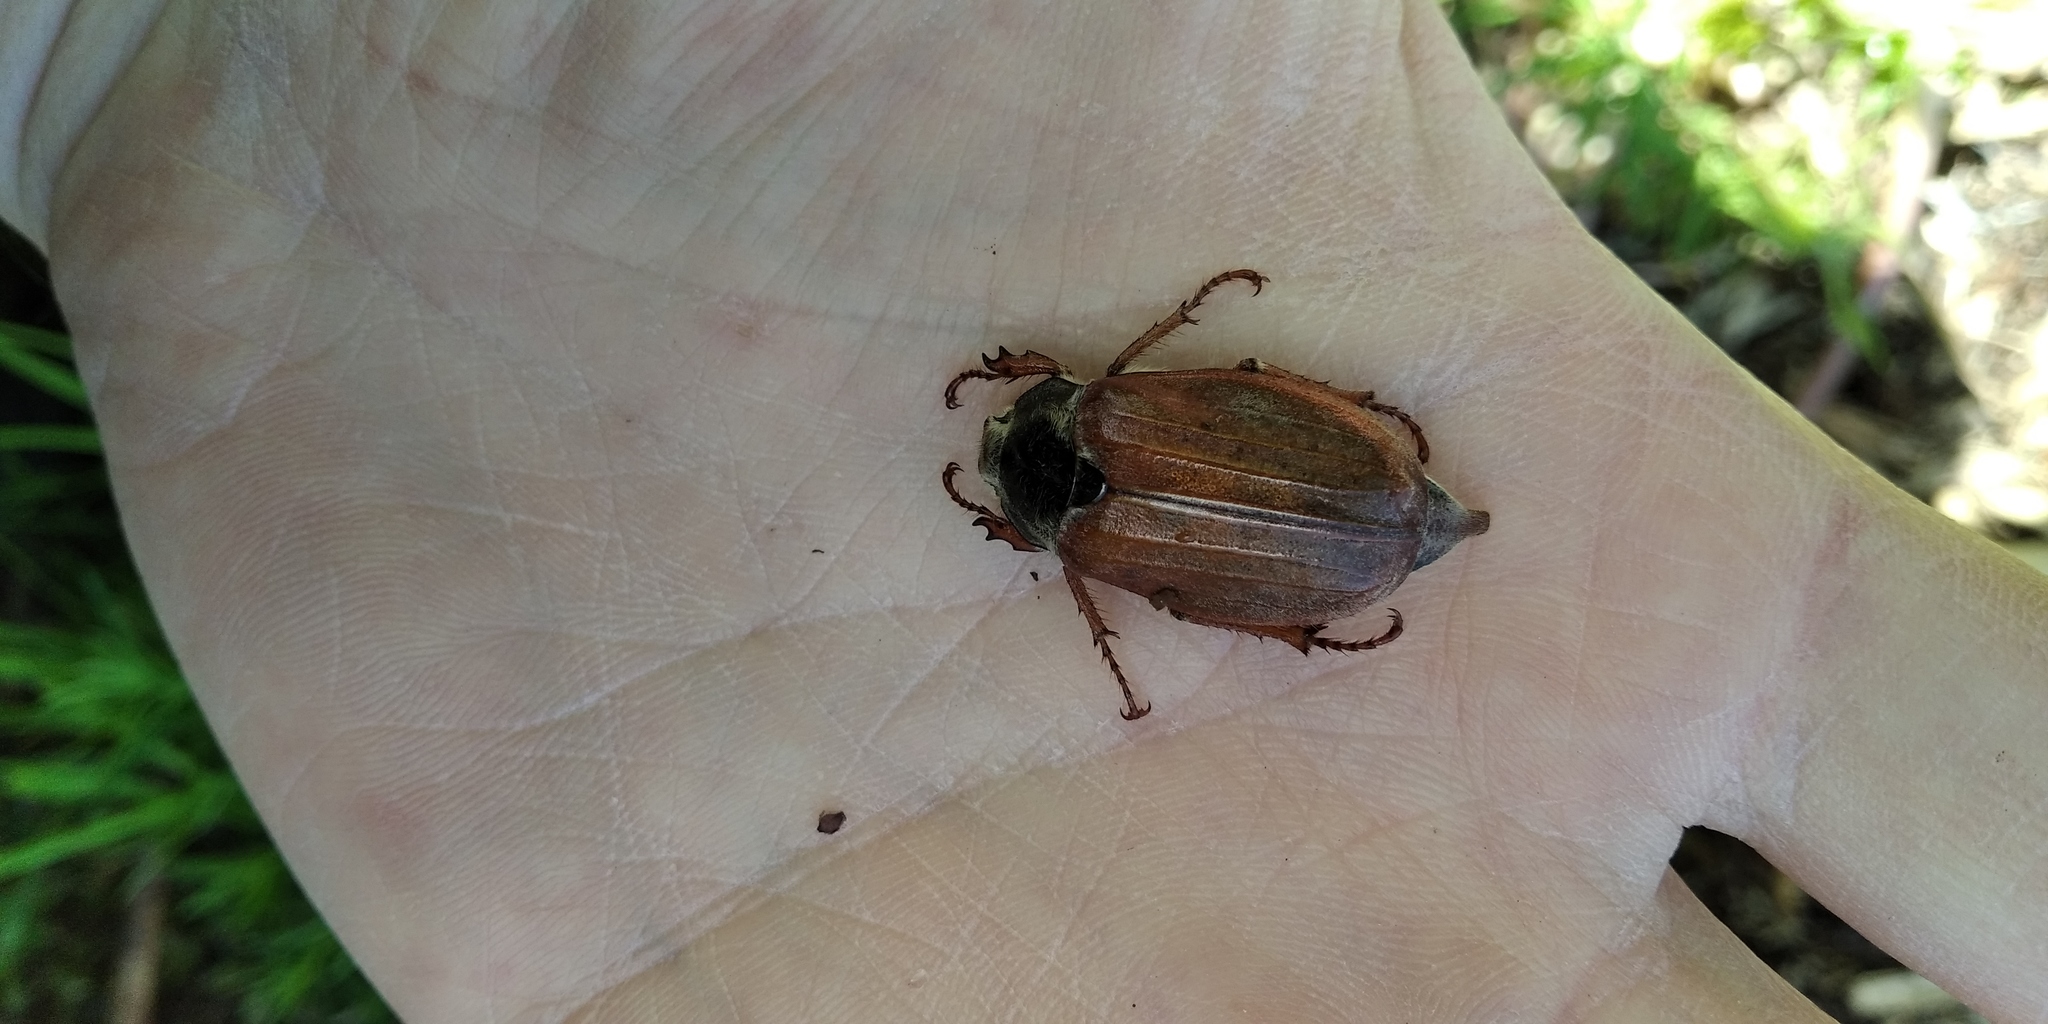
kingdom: Animalia
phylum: Arthropoda
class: Insecta
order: Coleoptera
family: Scarabaeidae
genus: Melolontha
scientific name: Melolontha melolontha
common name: Cockchafer maybeetle
